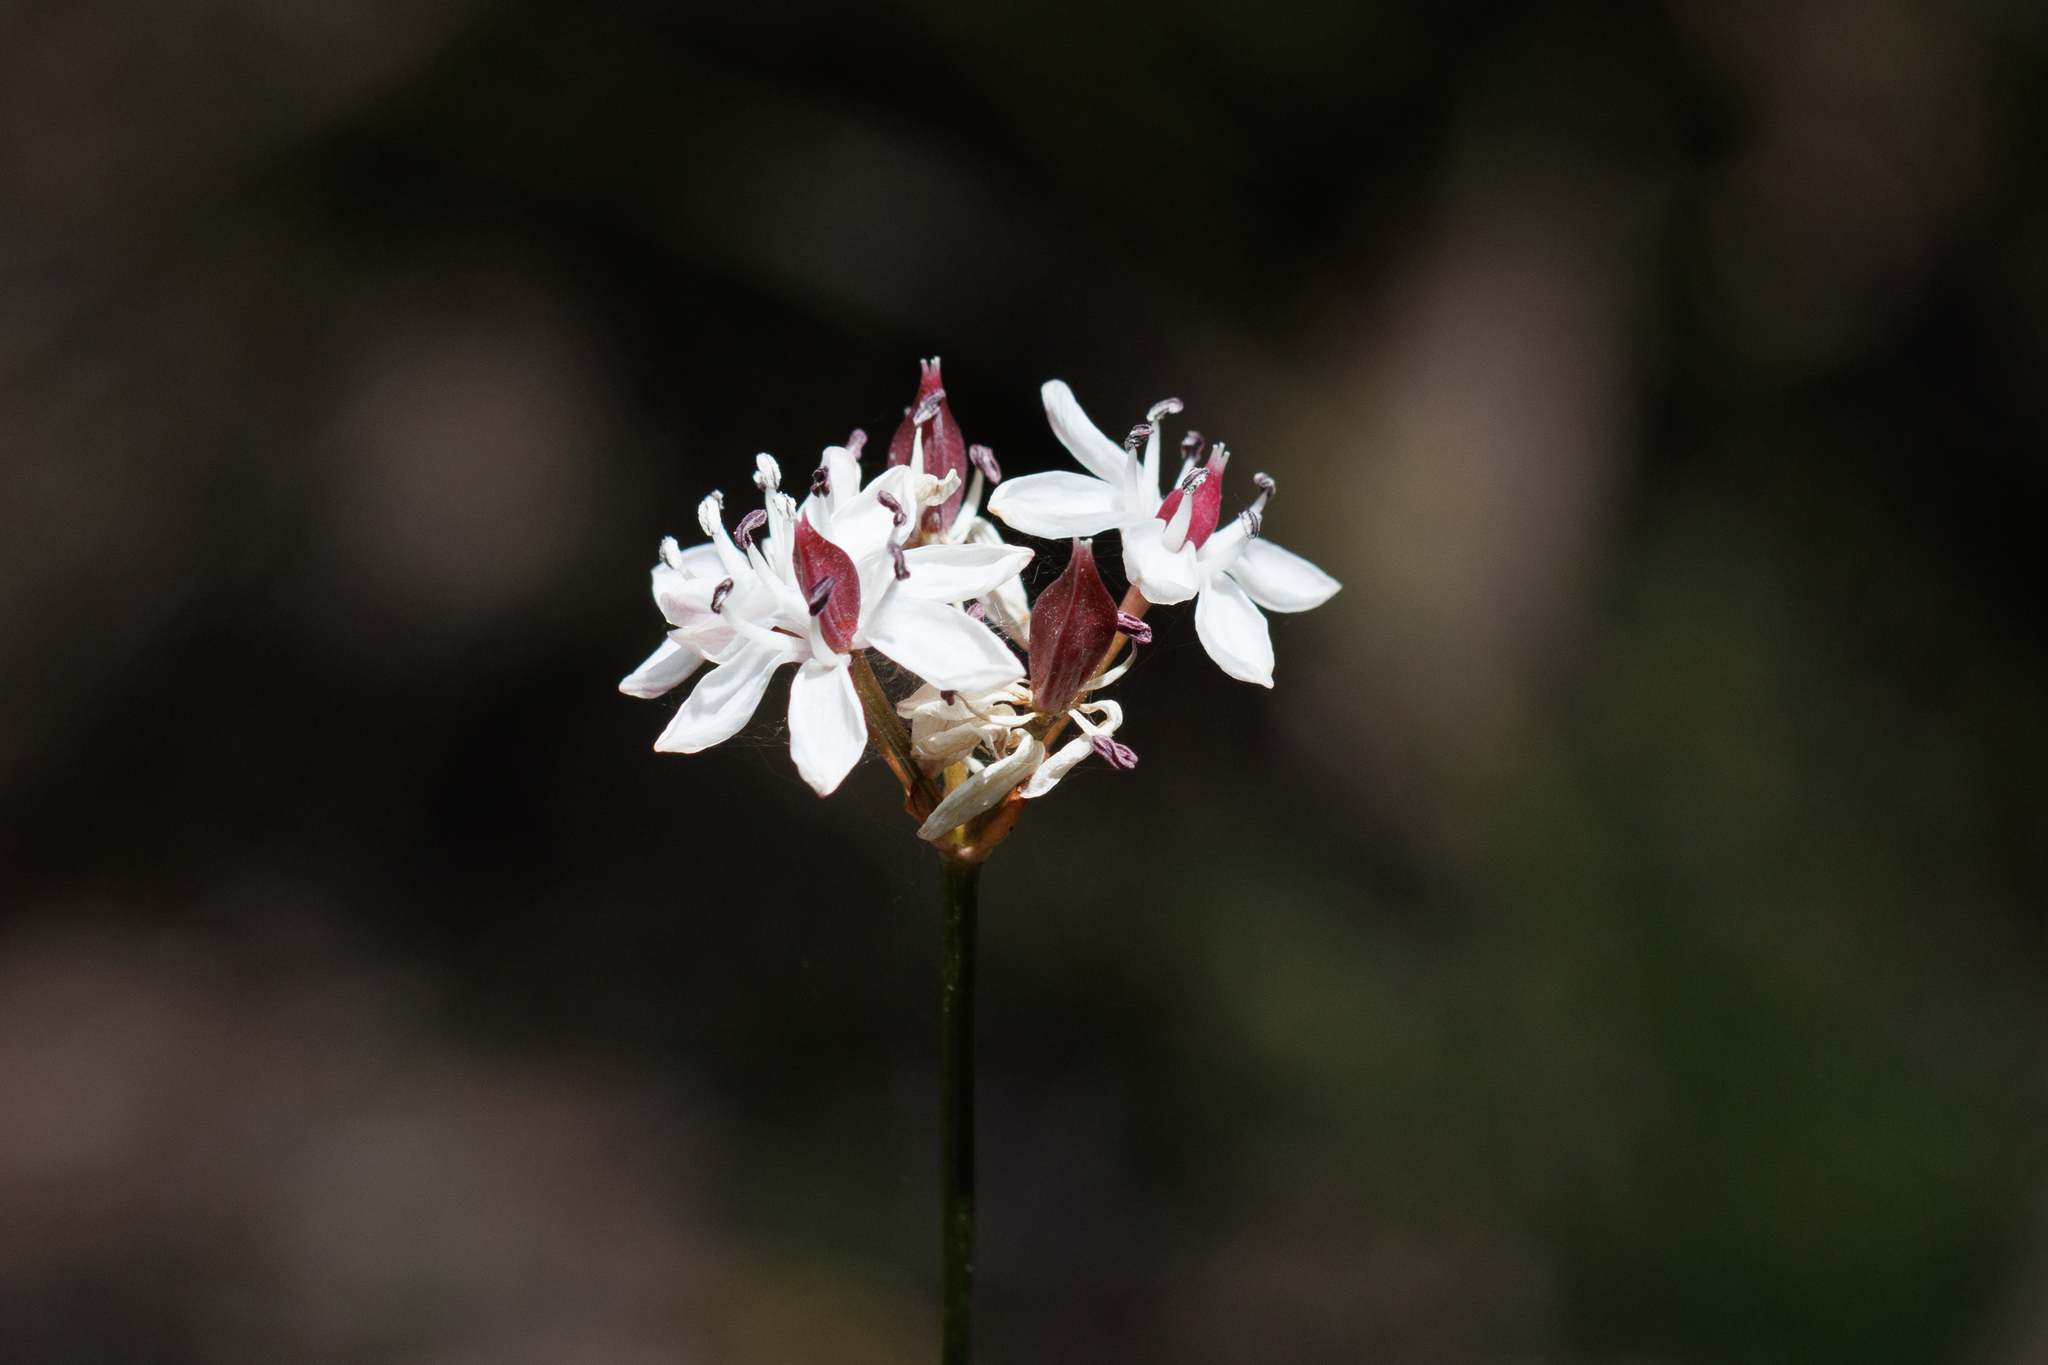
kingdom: Plantae
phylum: Tracheophyta
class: Liliopsida
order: Liliales
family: Colchicaceae
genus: Burchardia
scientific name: Burchardia umbellata
